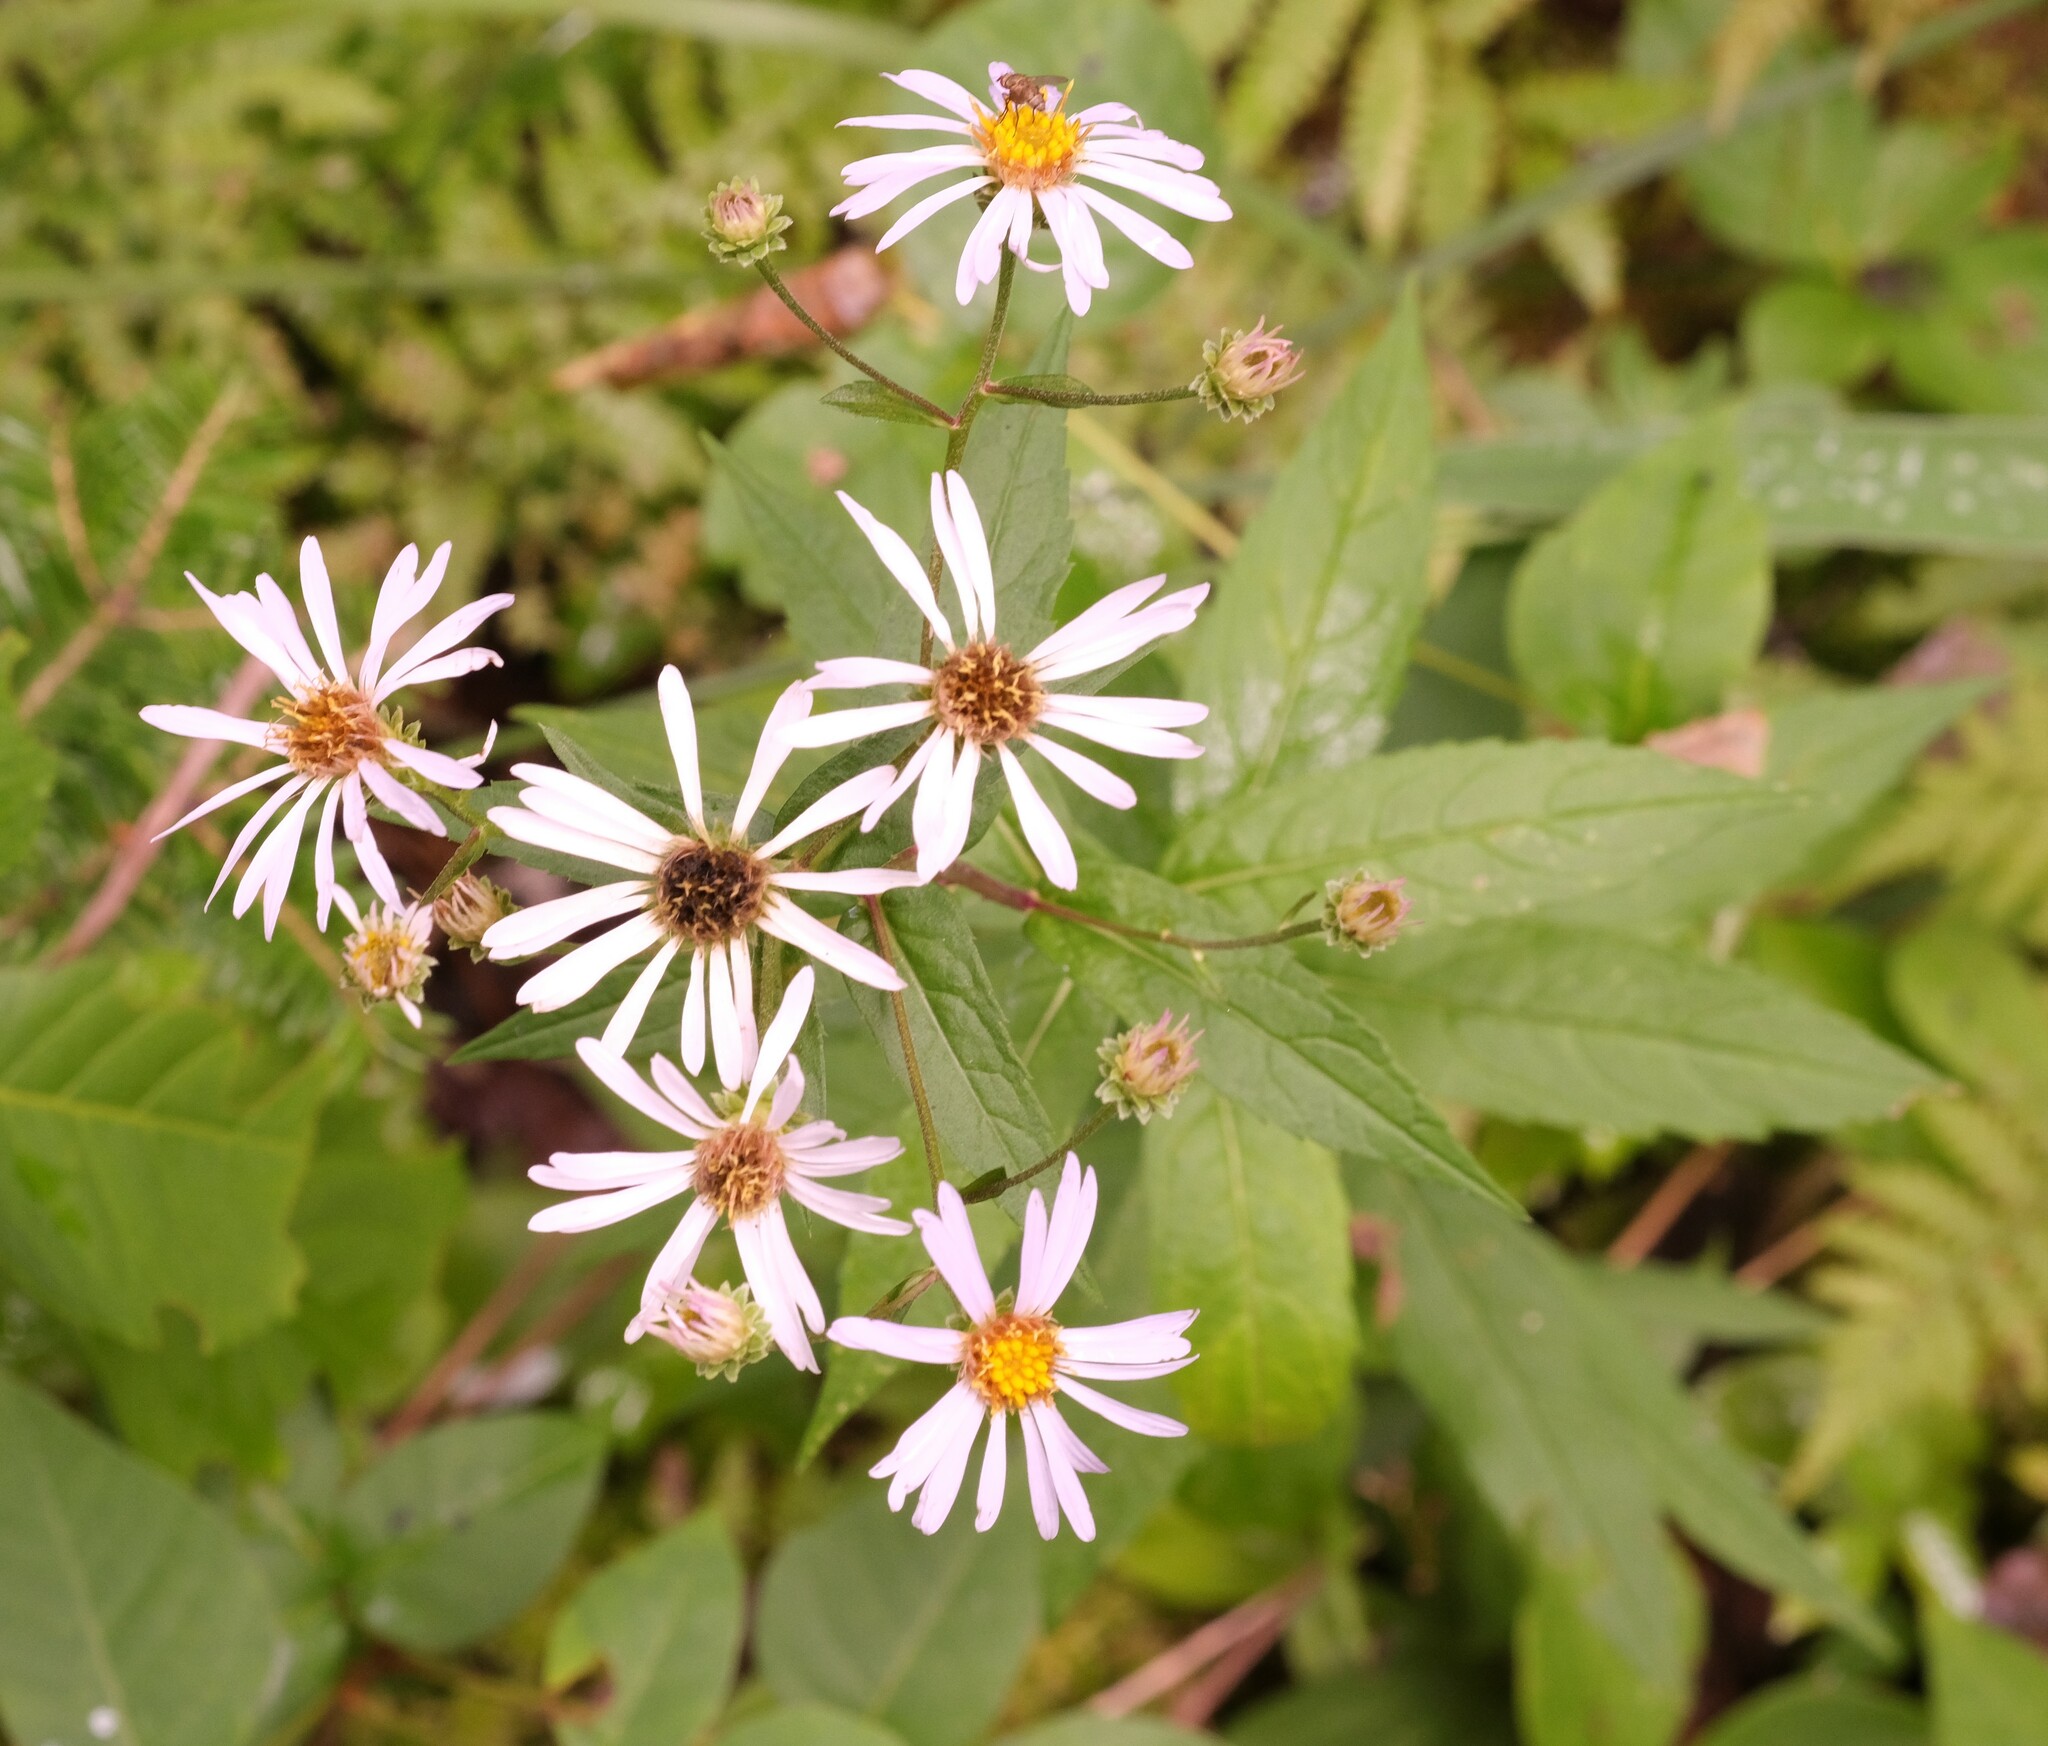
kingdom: Plantae
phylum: Tracheophyta
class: Magnoliopsida
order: Asterales
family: Asteraceae
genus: Eurybia
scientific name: Eurybia radula
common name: Low rough aster
